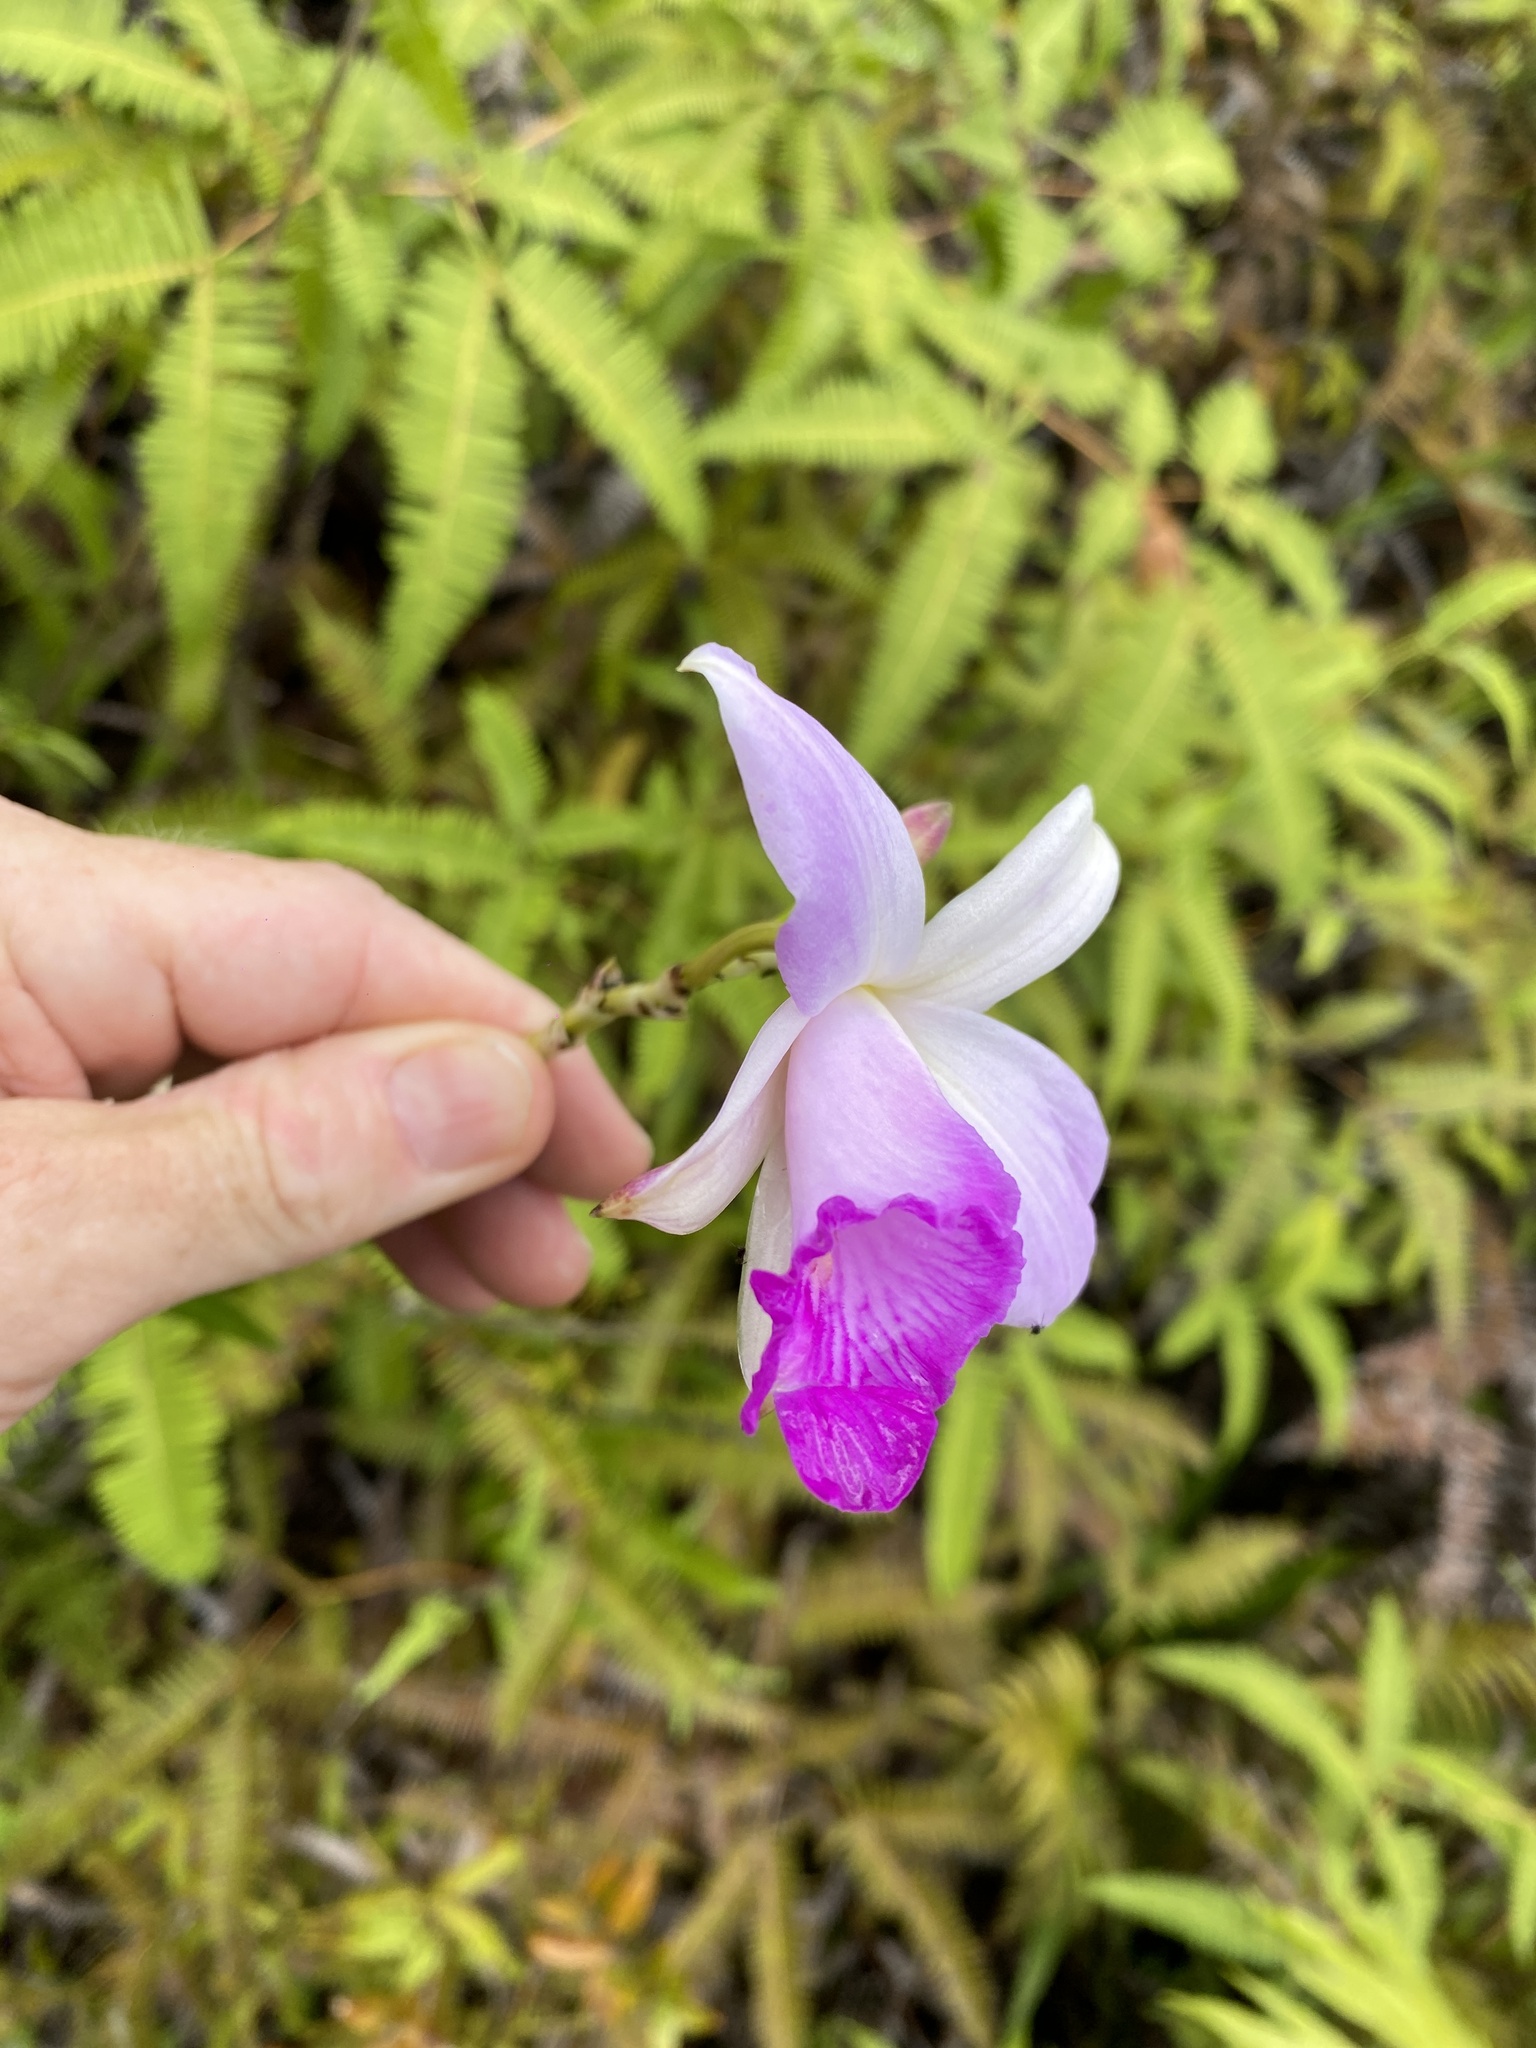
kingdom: Plantae
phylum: Tracheophyta
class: Liliopsida
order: Asparagales
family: Orchidaceae
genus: Arundina
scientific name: Arundina graminifolia
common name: Bamboo orchid
